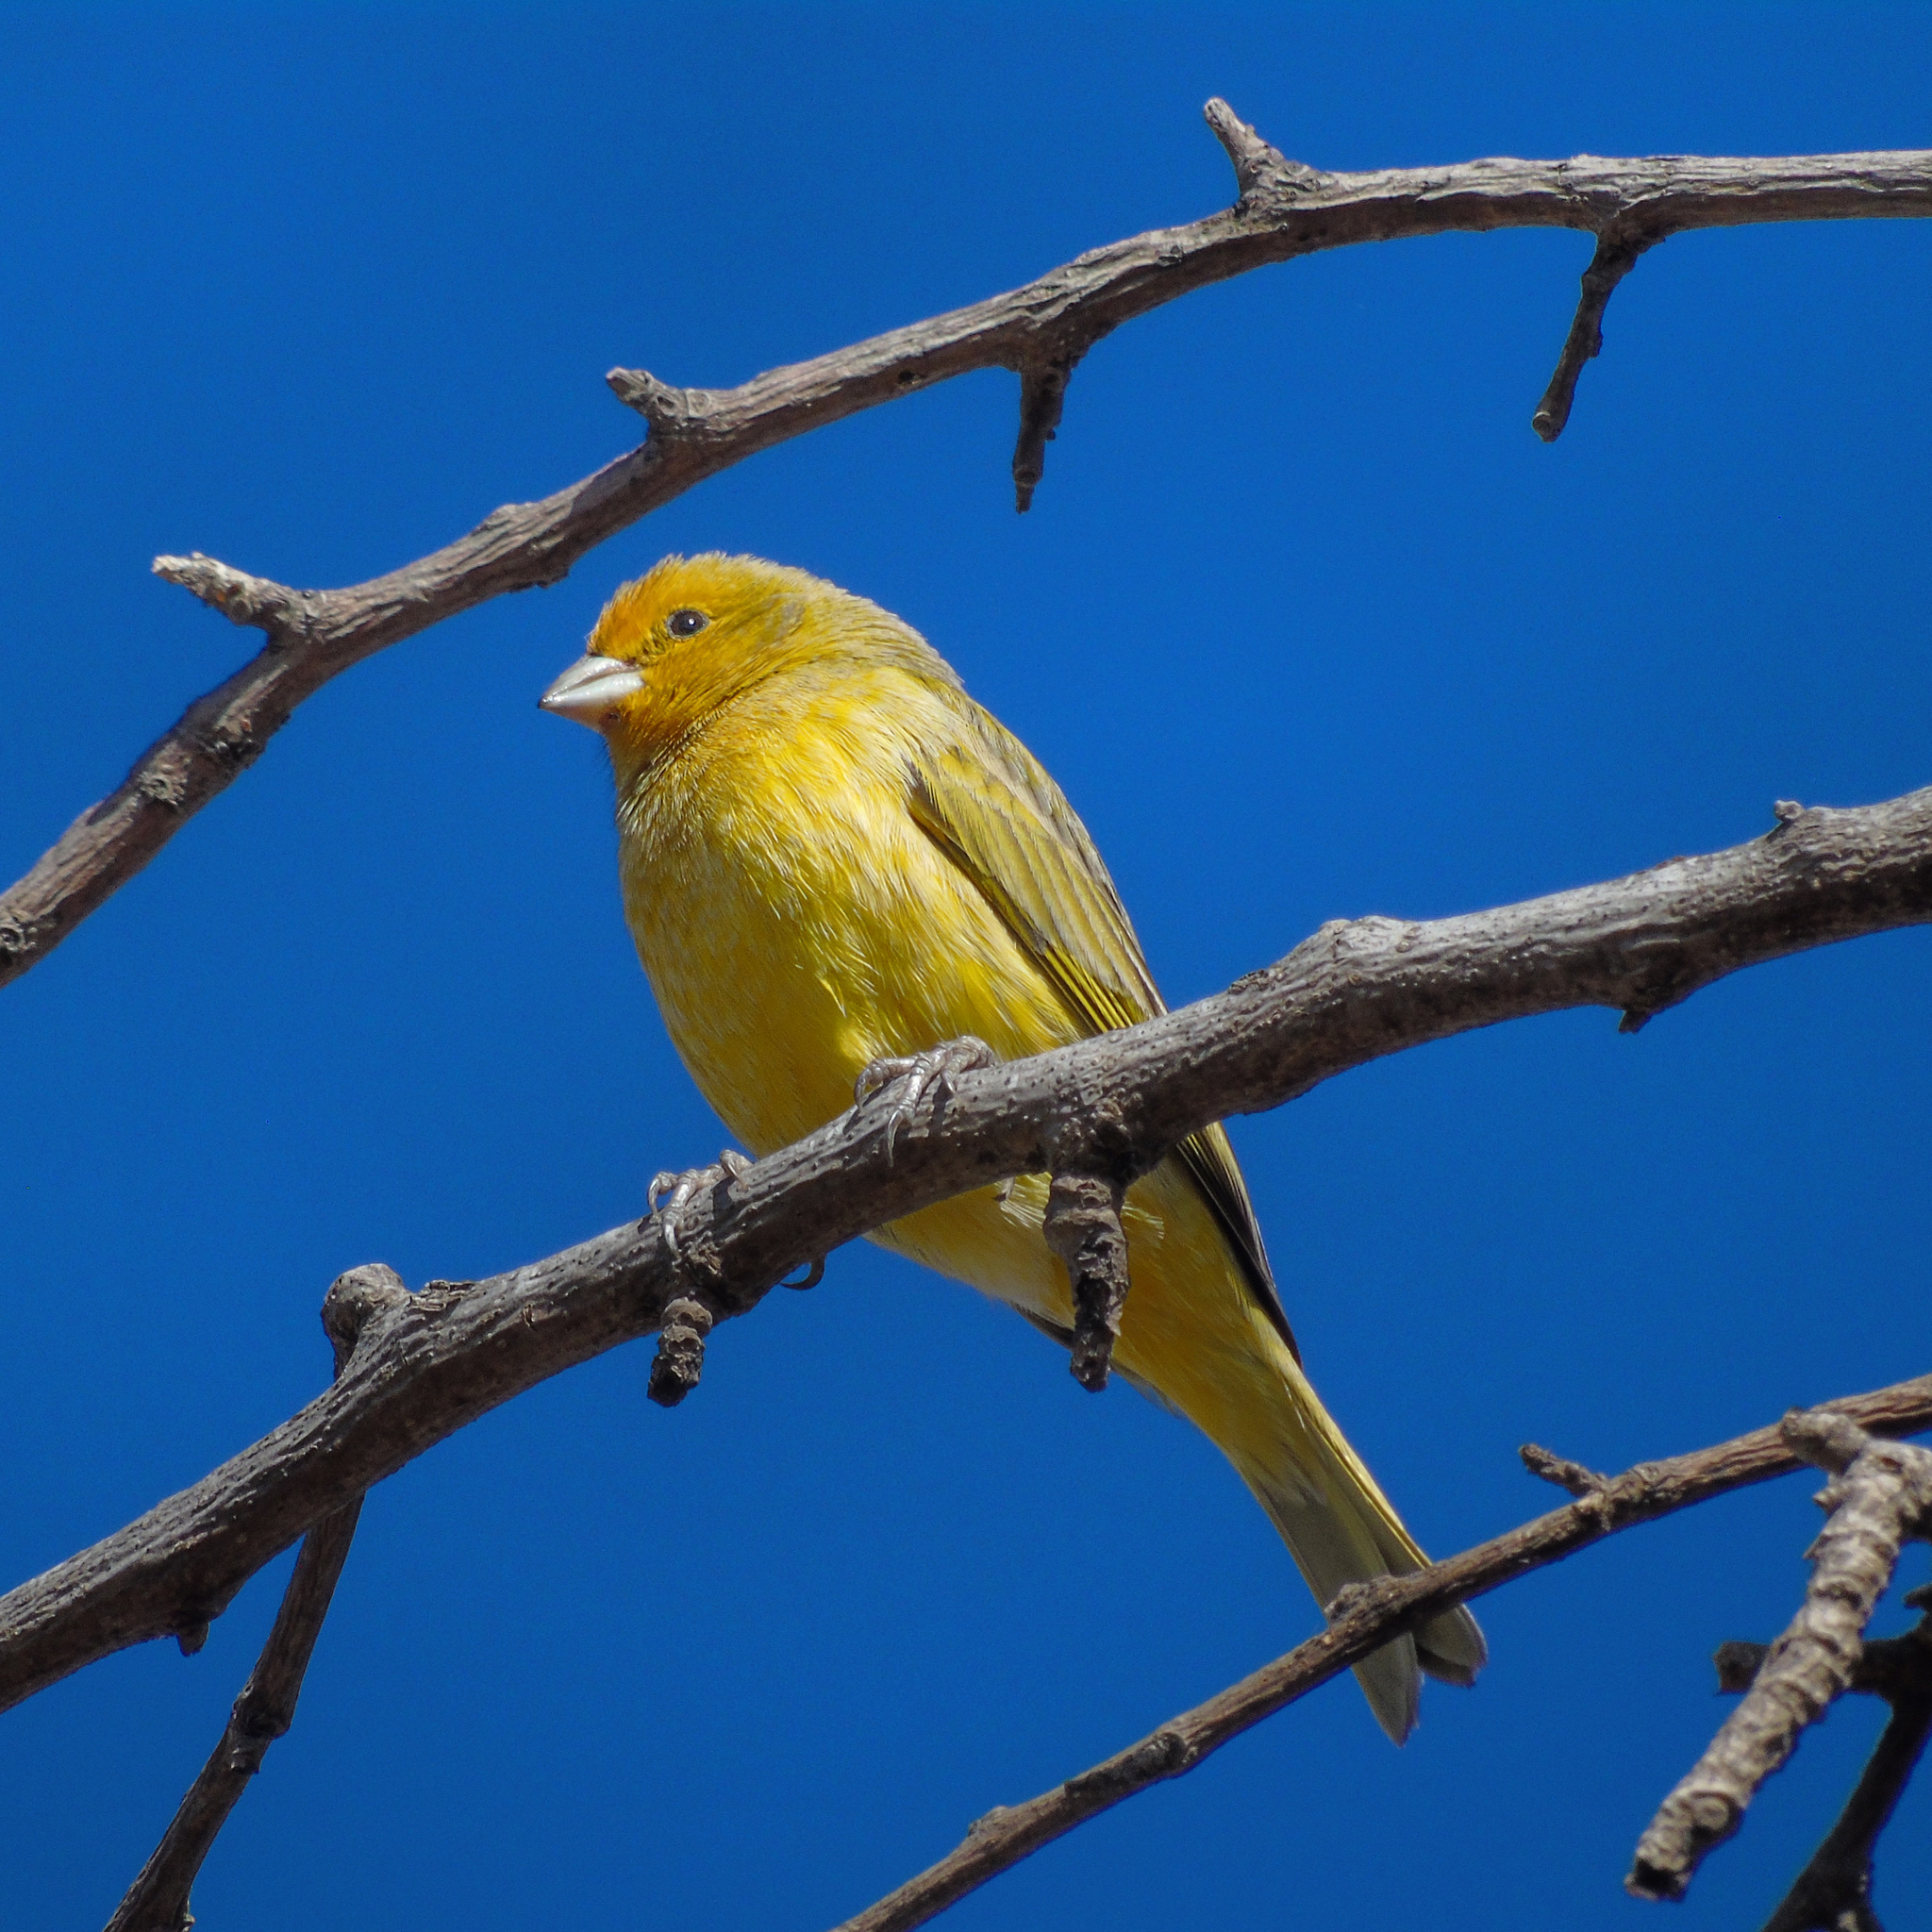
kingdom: Animalia
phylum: Chordata
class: Aves
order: Passeriformes
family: Thraupidae
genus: Sicalis
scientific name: Sicalis flaveola
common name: Saffron finch
